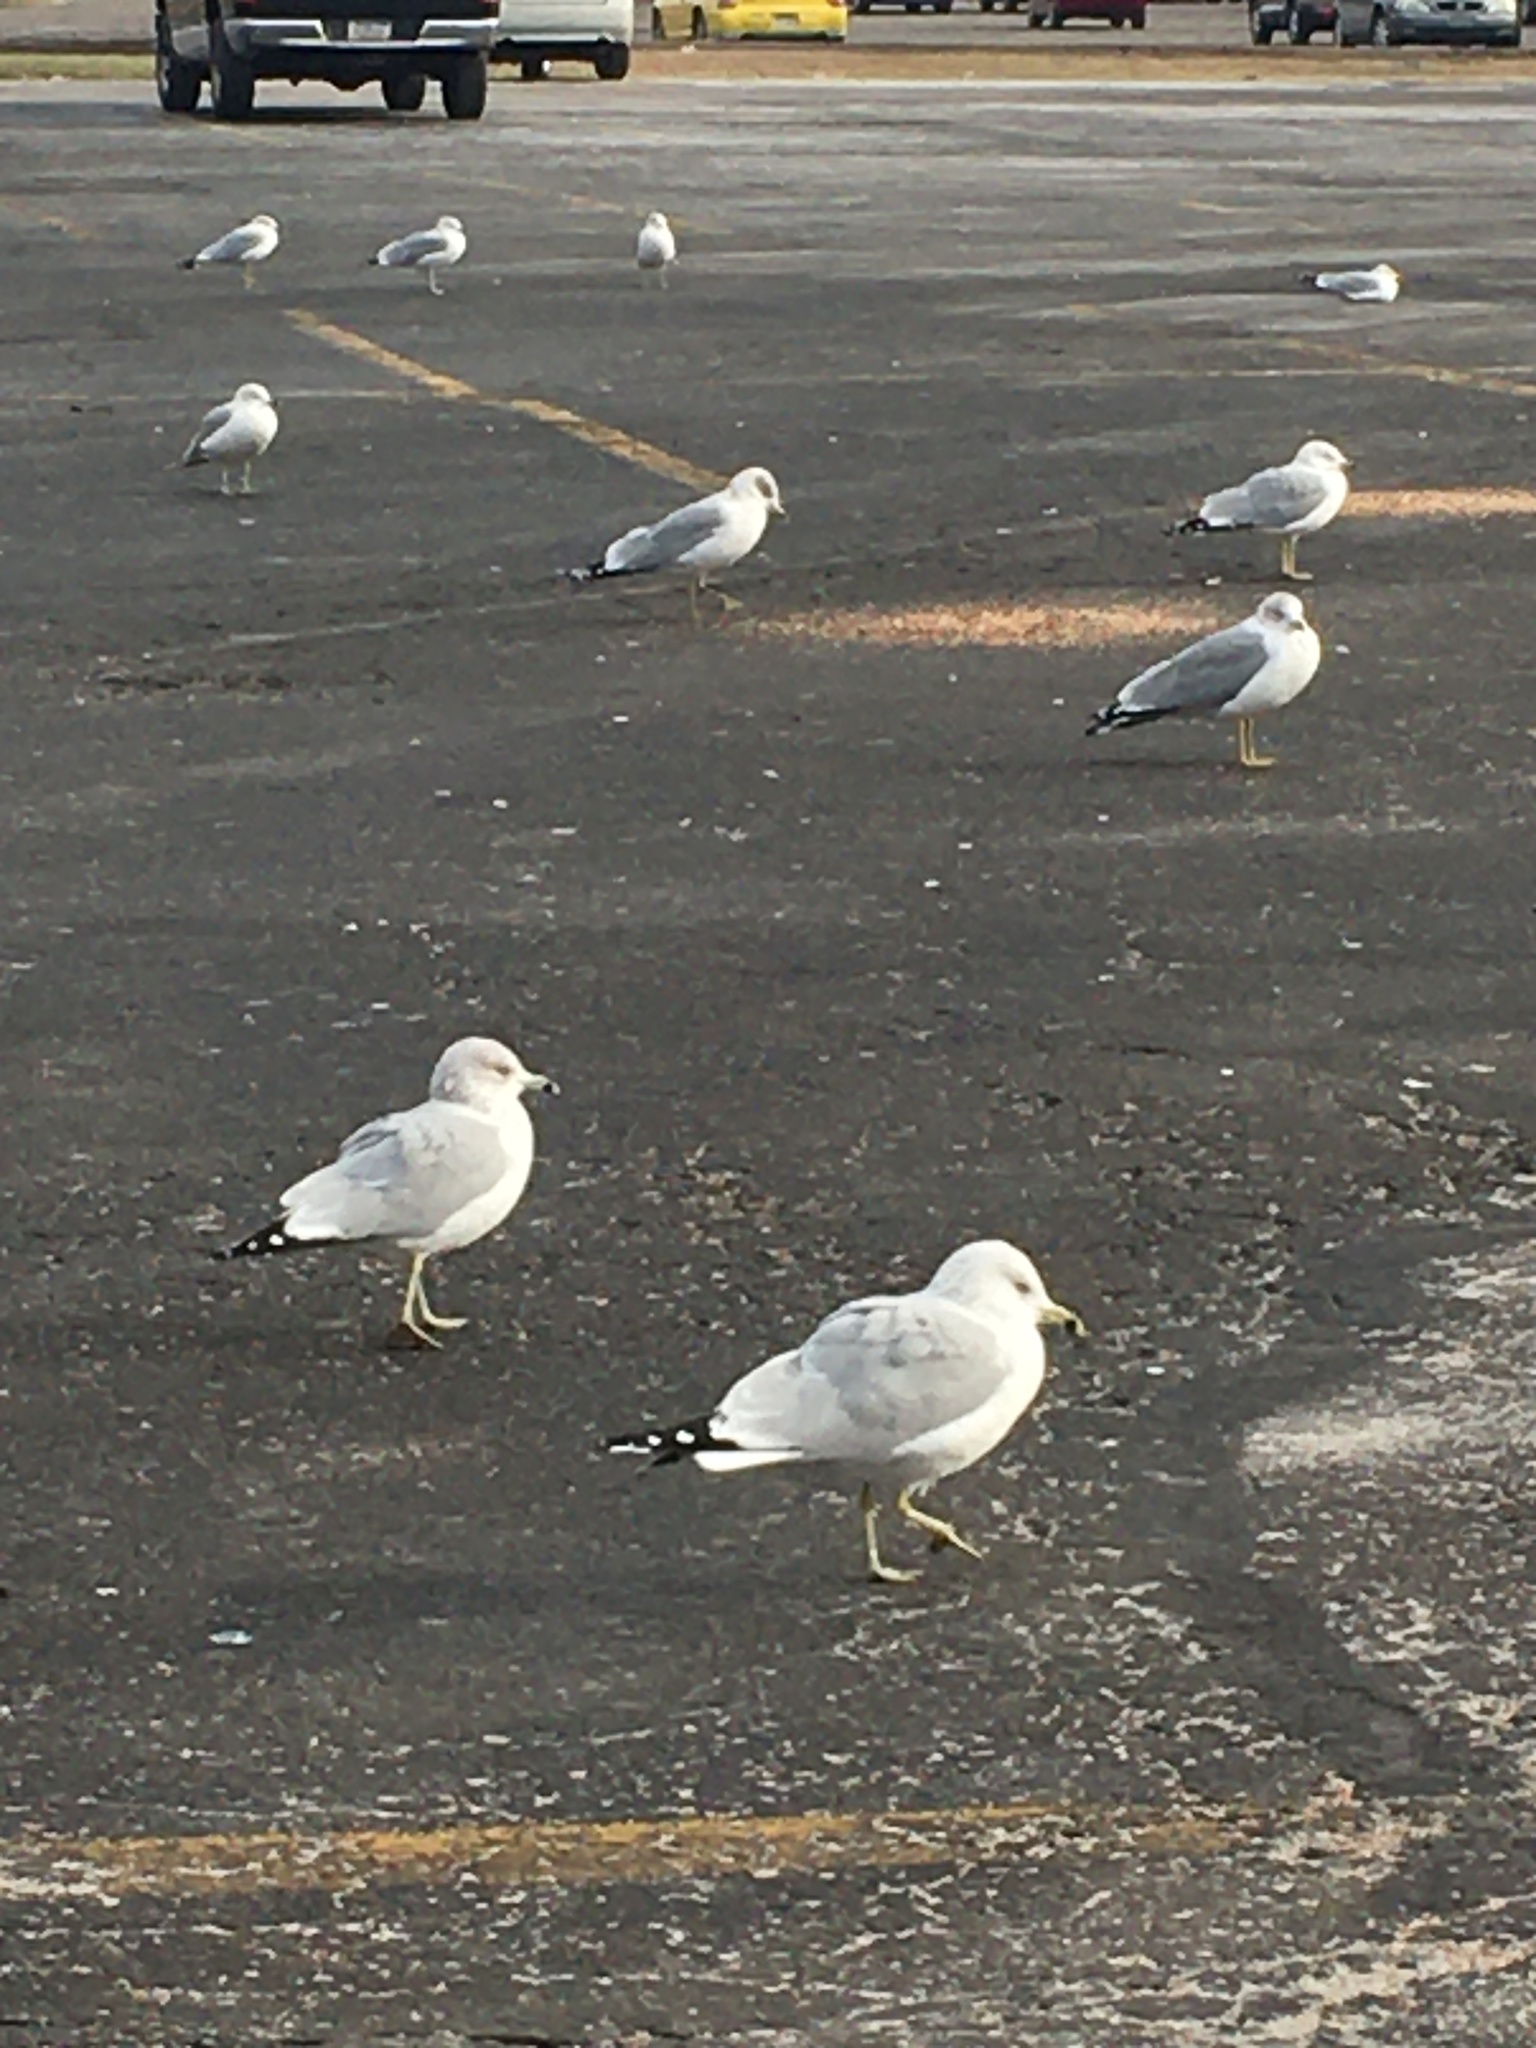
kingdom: Animalia
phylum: Chordata
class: Aves
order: Charadriiformes
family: Laridae
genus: Larus
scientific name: Larus delawarensis
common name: Ring-billed gull
